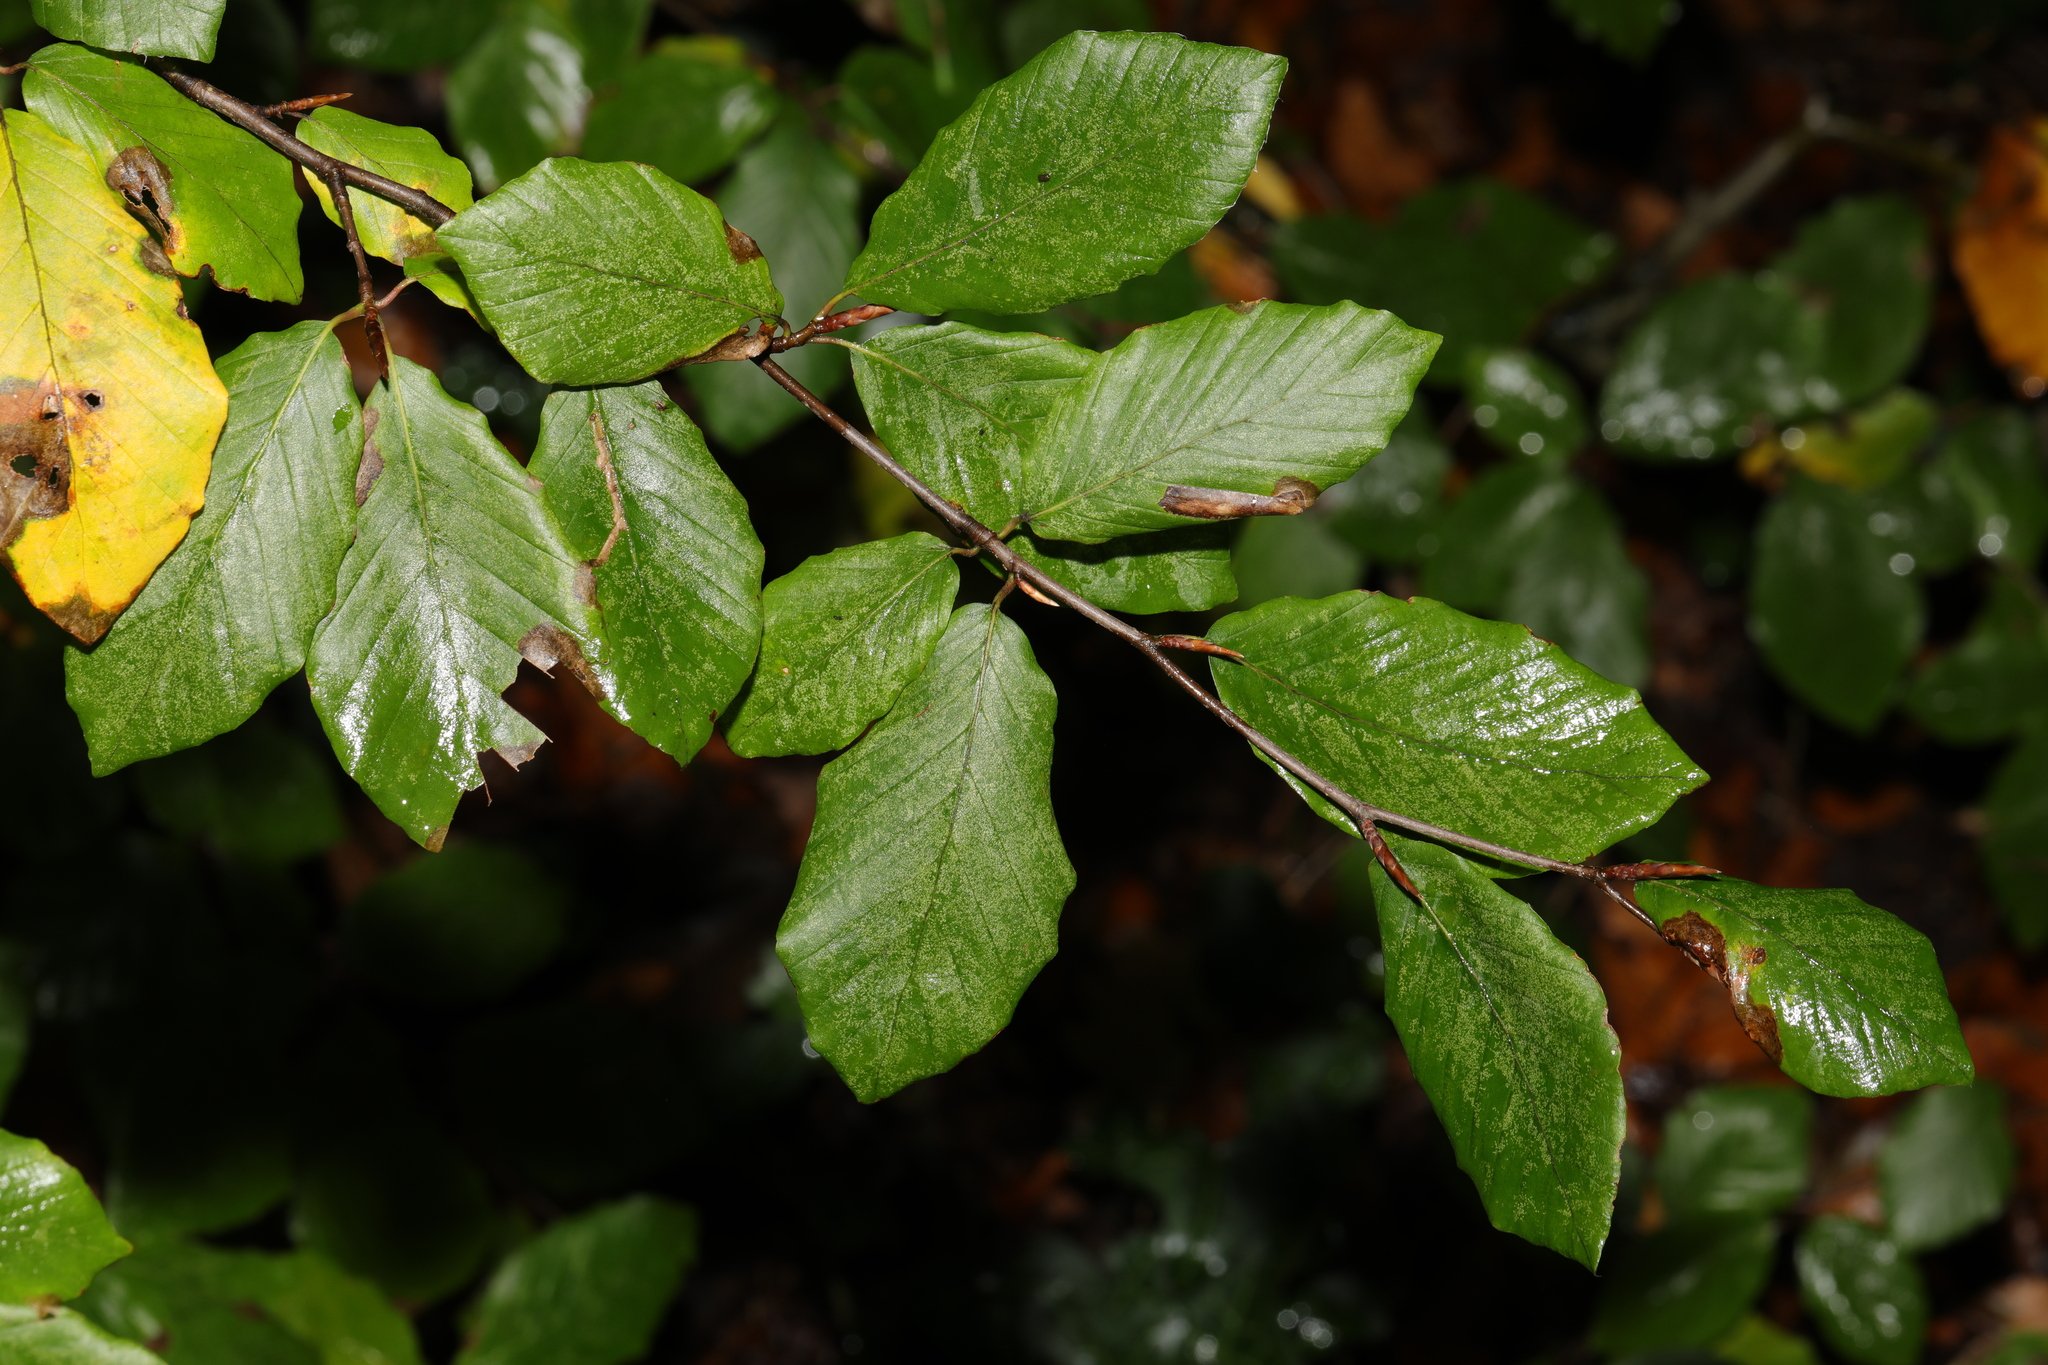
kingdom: Plantae
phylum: Tracheophyta
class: Magnoliopsida
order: Fagales
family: Fagaceae
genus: Fagus
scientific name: Fagus sylvatica
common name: Beech
